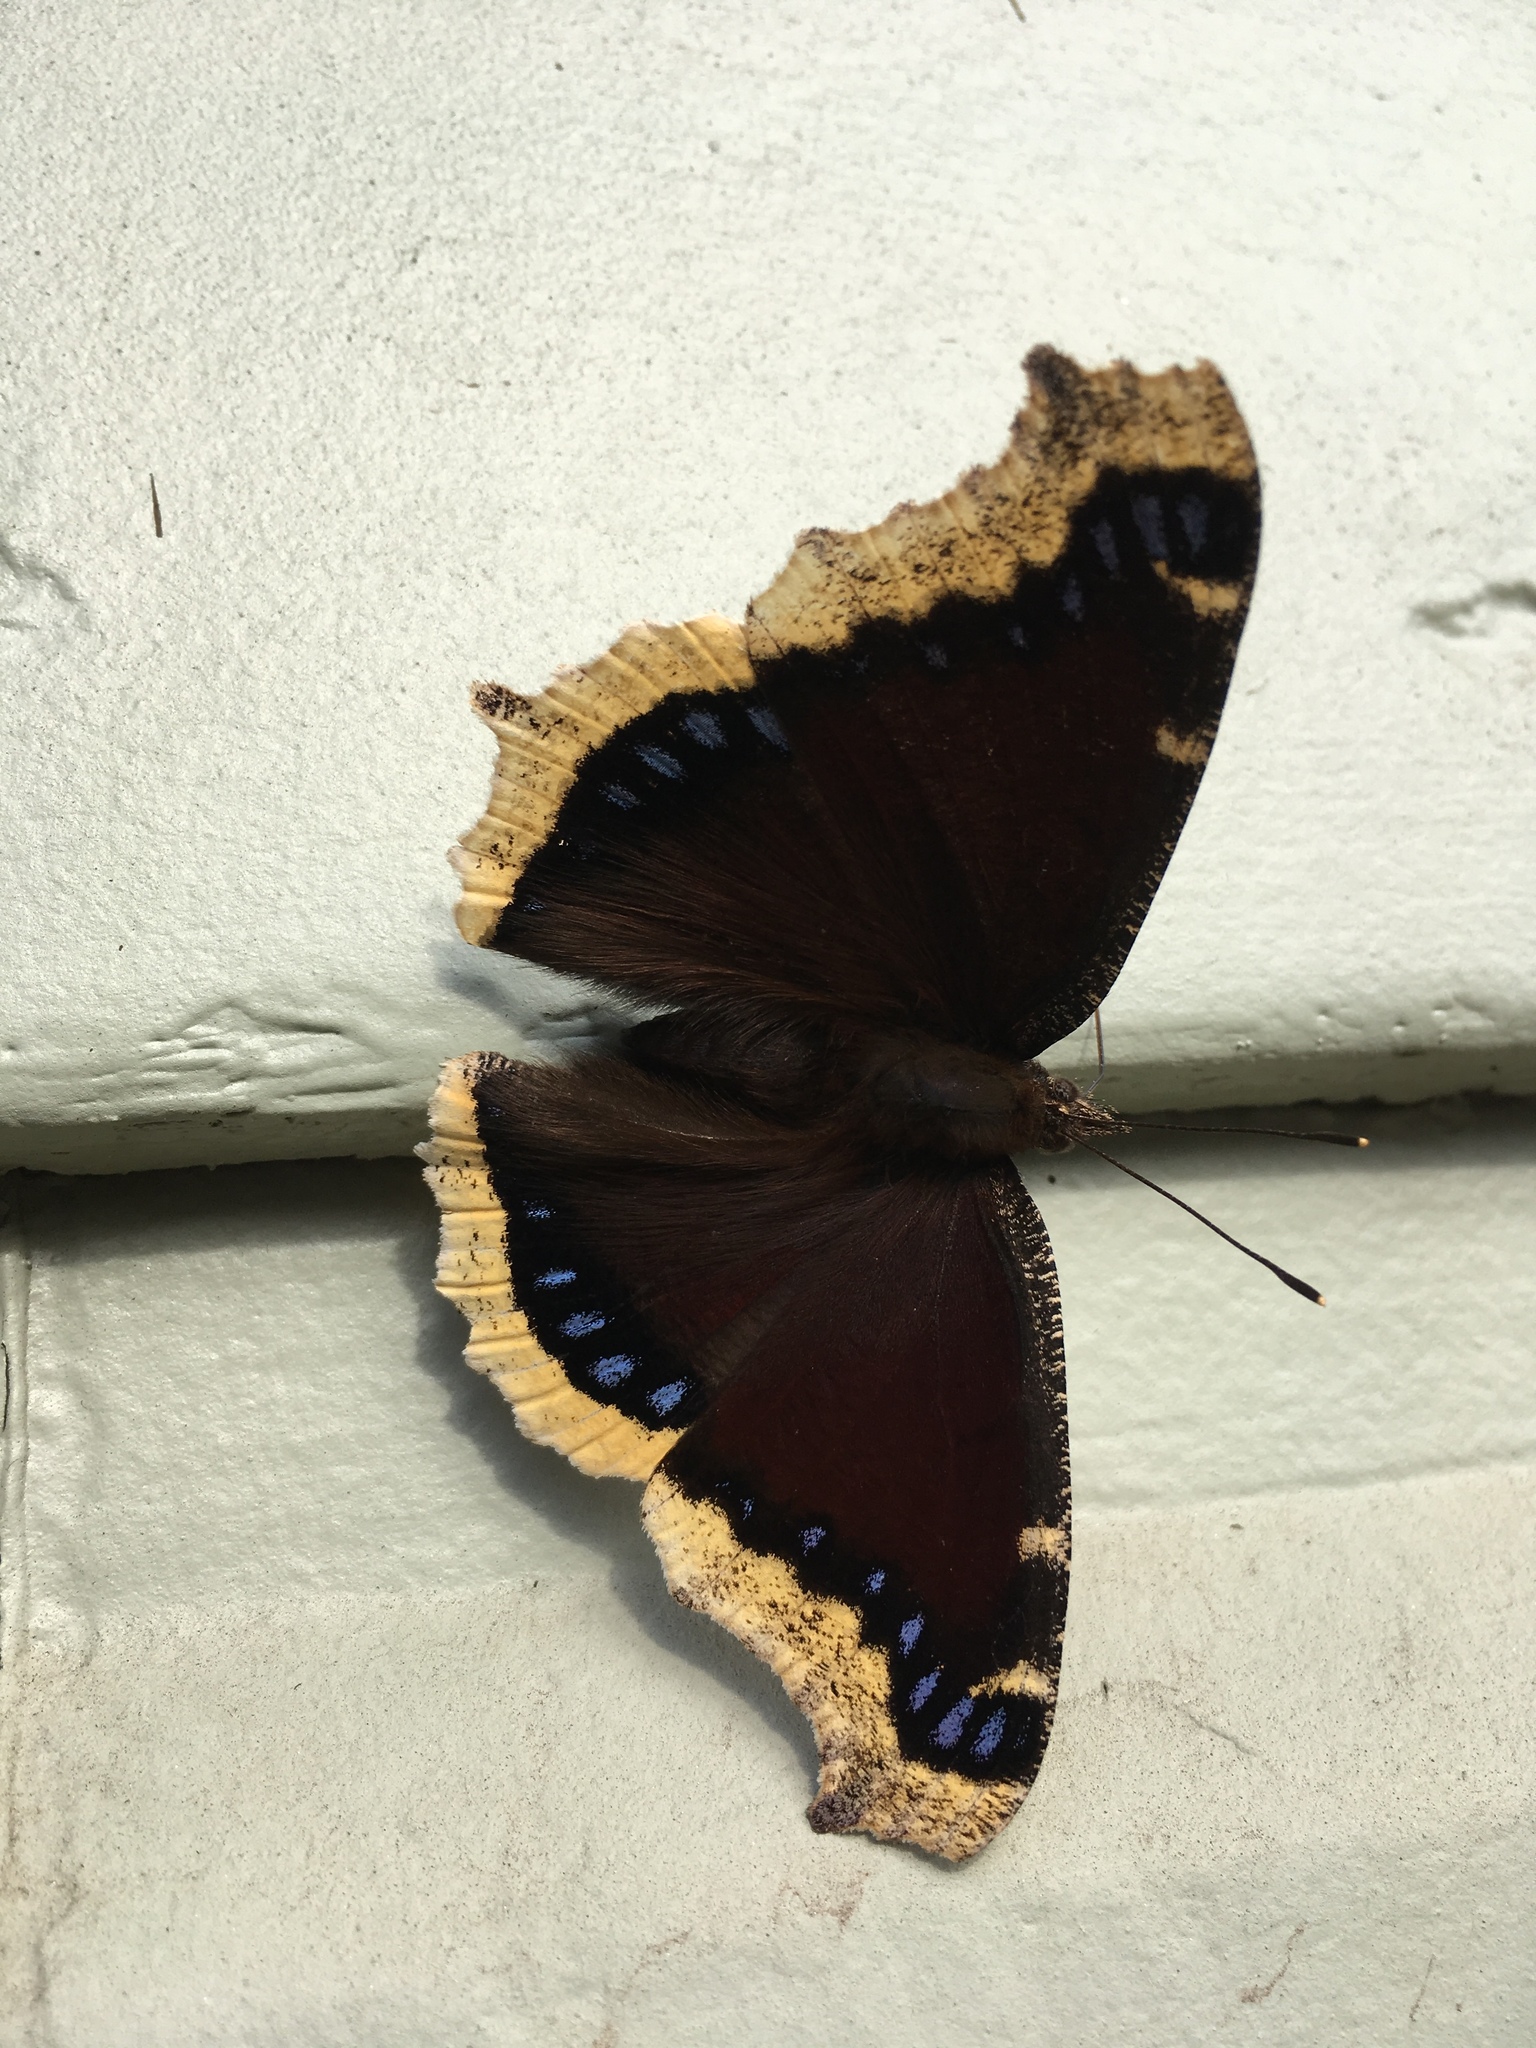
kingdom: Animalia
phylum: Arthropoda
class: Insecta
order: Lepidoptera
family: Nymphalidae
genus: Nymphalis
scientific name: Nymphalis antiopa
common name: Camberwell beauty
